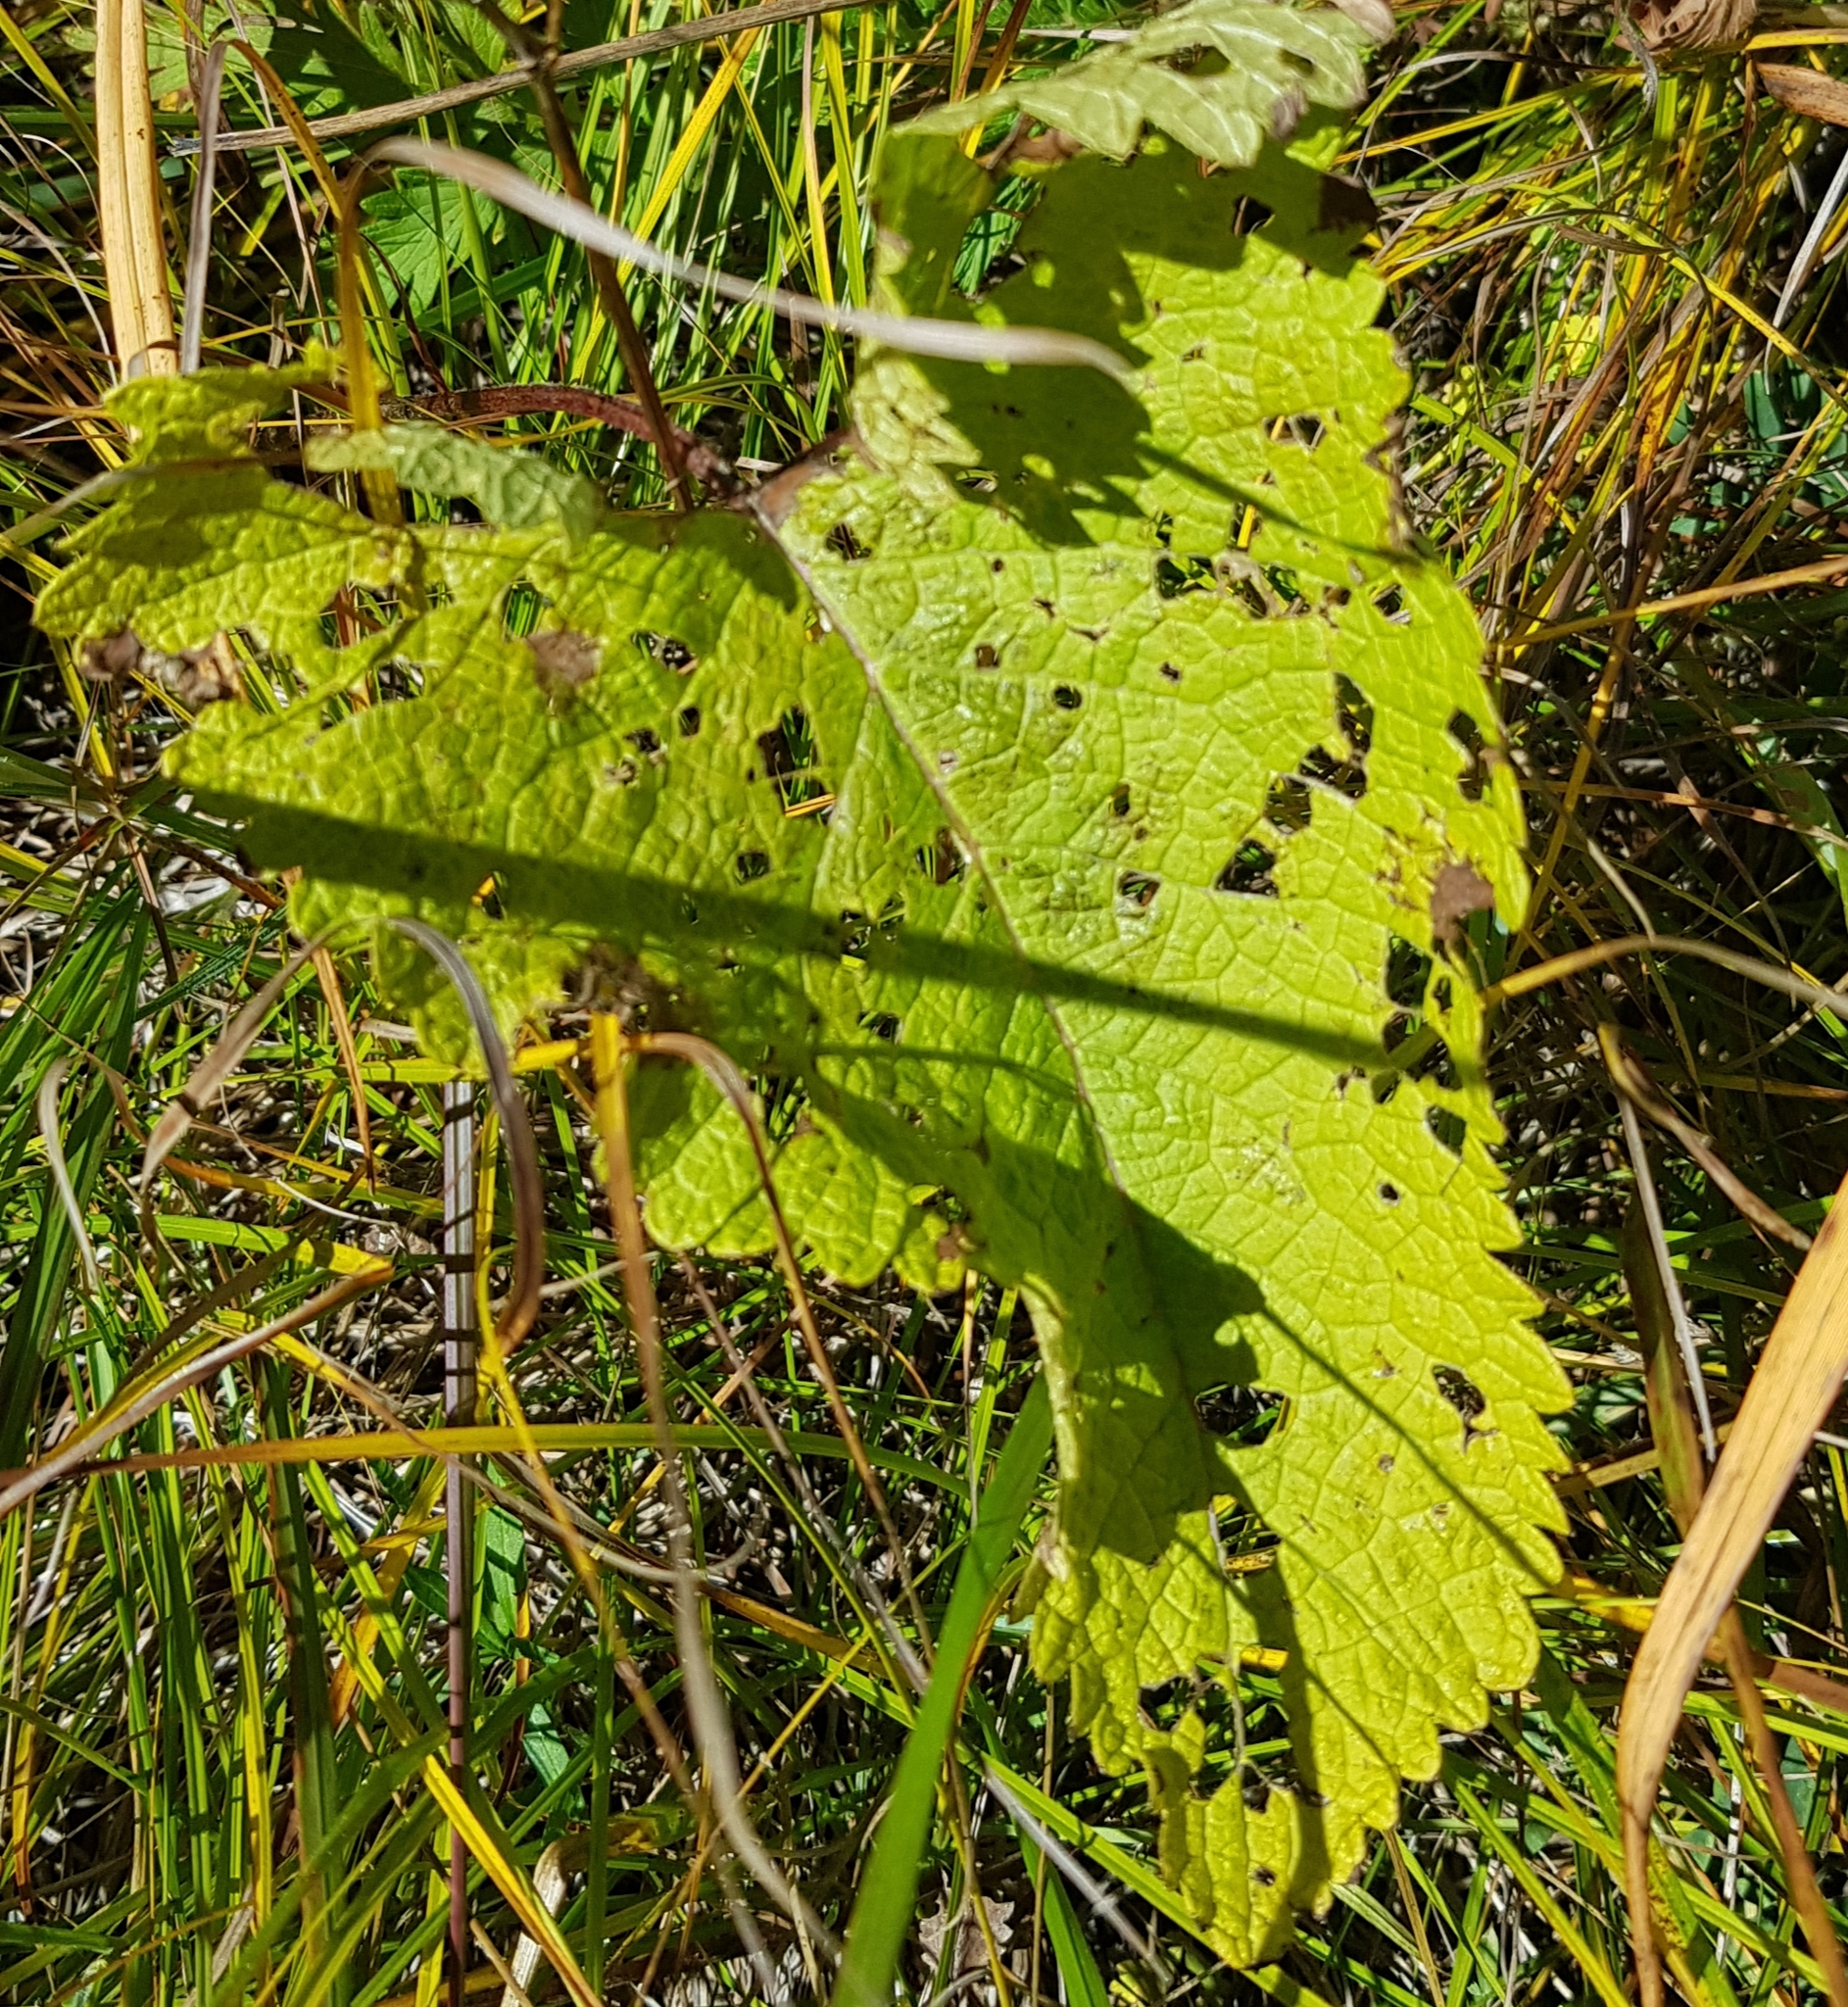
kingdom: Plantae
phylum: Tracheophyta
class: Magnoliopsida
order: Lamiales
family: Lamiaceae
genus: Phlomoides
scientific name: Phlomoides tuberosa
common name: Tuberous jerusalem sage
